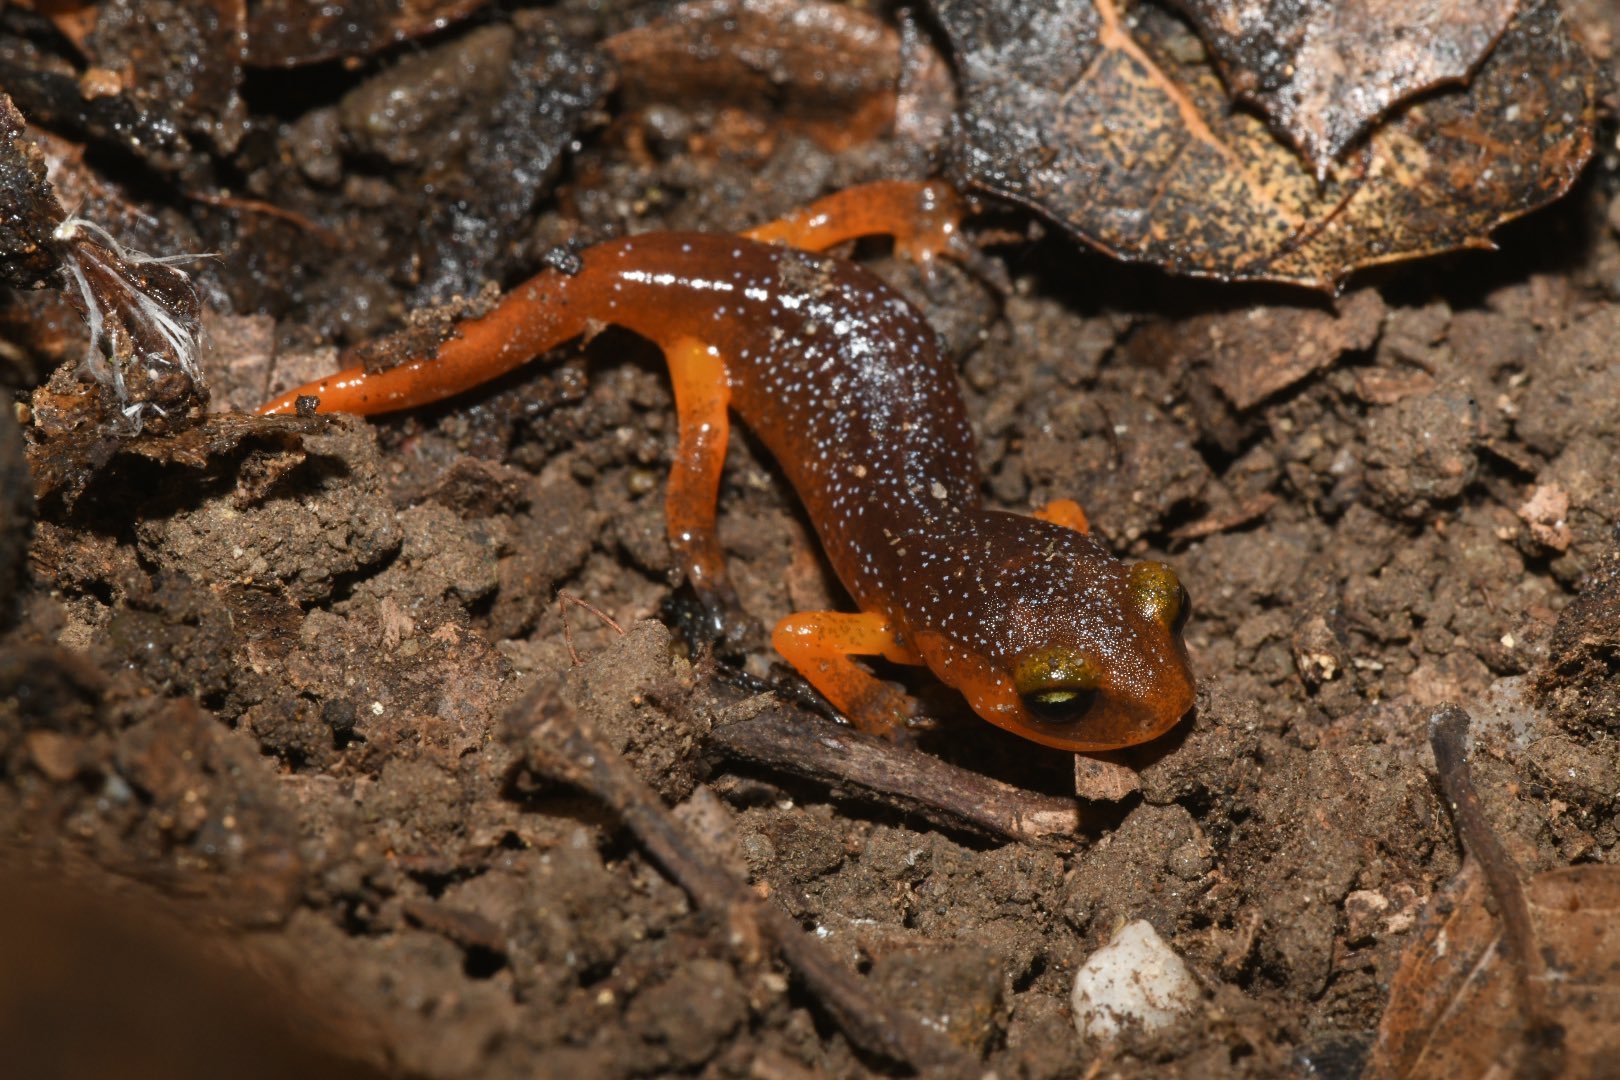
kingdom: Animalia
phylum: Chordata
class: Amphibia
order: Caudata
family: Plethodontidae
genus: Ensatina
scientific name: Ensatina eschscholtzii
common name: Ensatina
